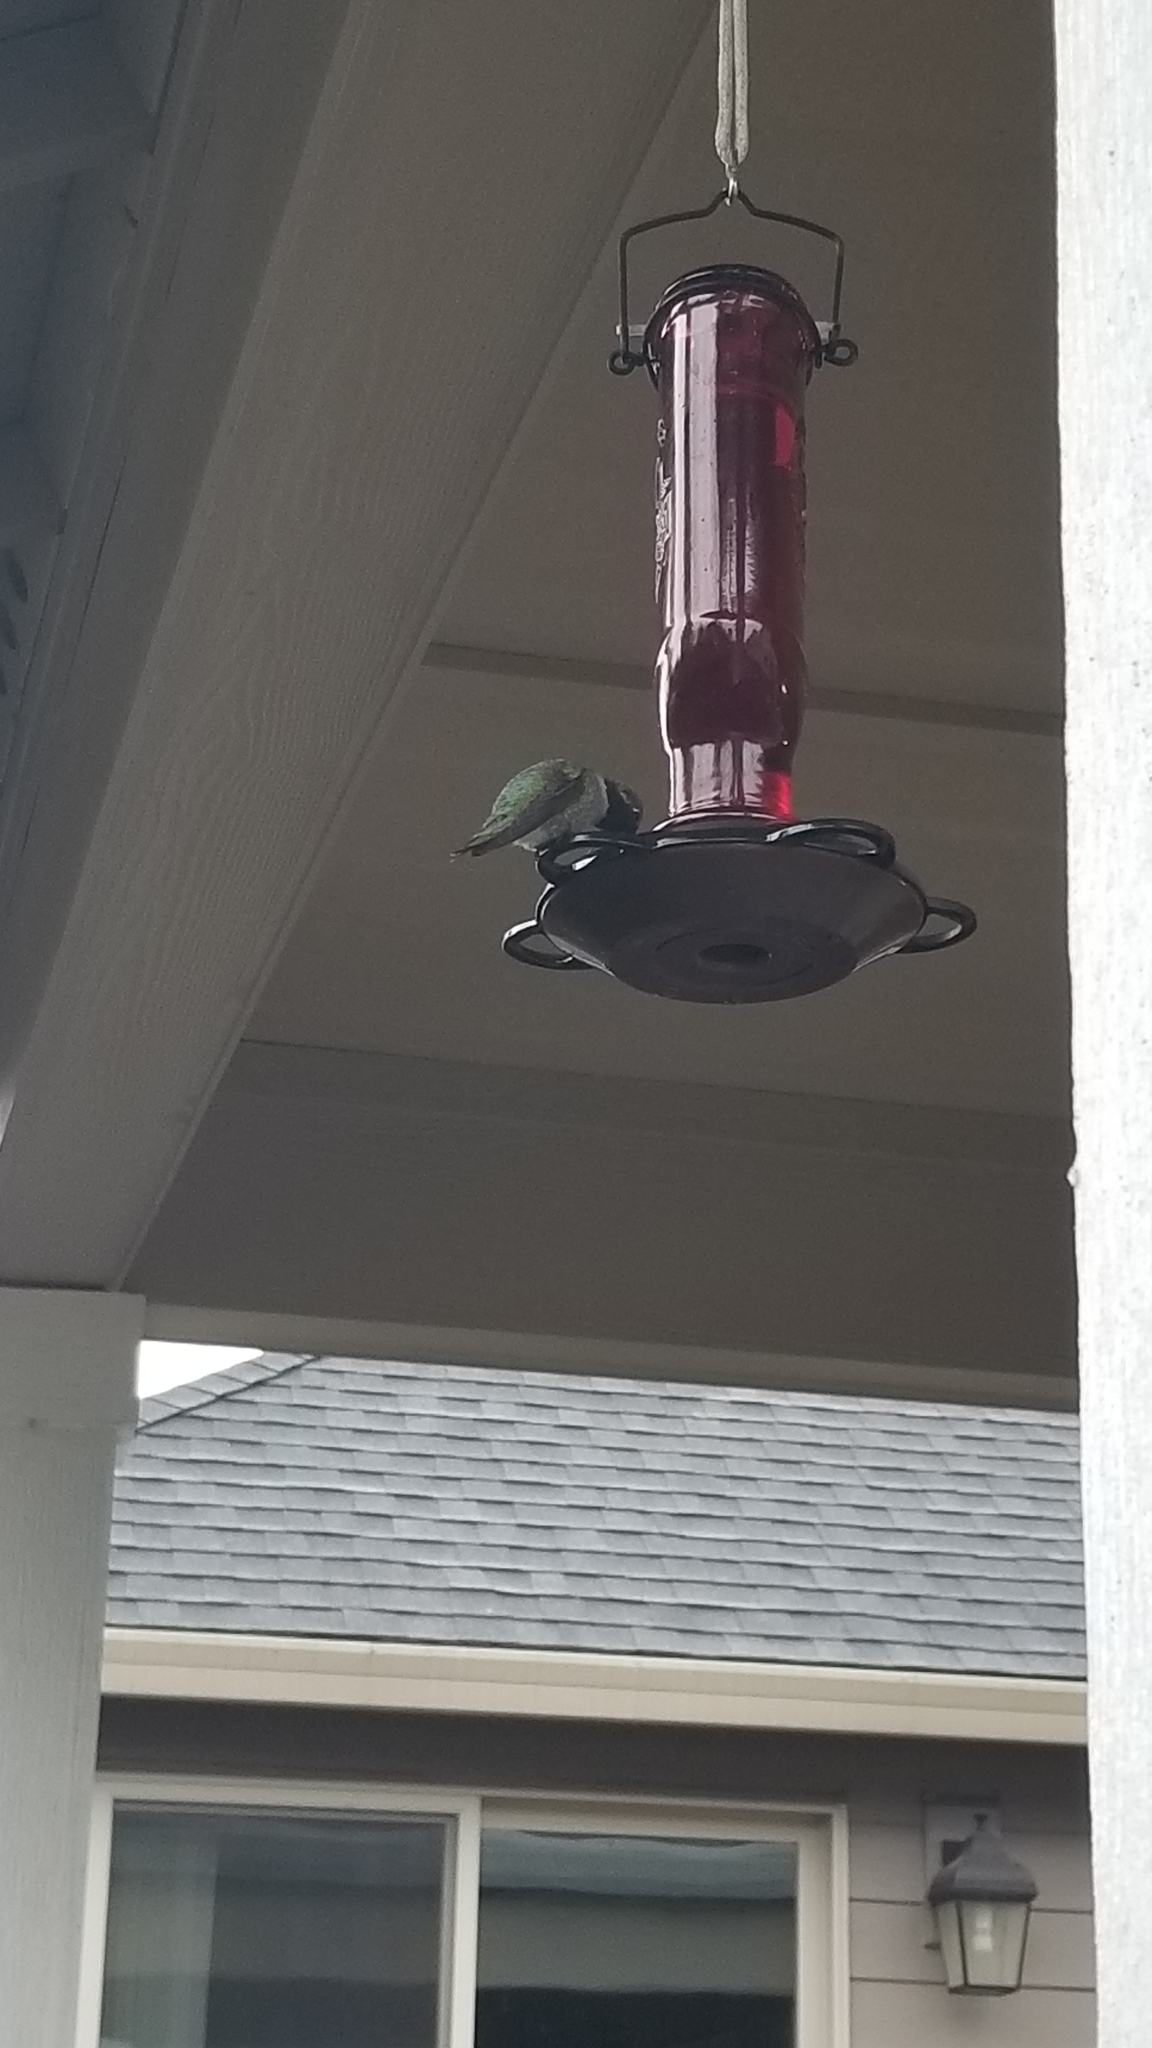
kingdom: Animalia
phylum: Chordata
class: Aves
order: Apodiformes
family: Trochilidae
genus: Calypte
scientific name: Calypte anna
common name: Anna's hummingbird
